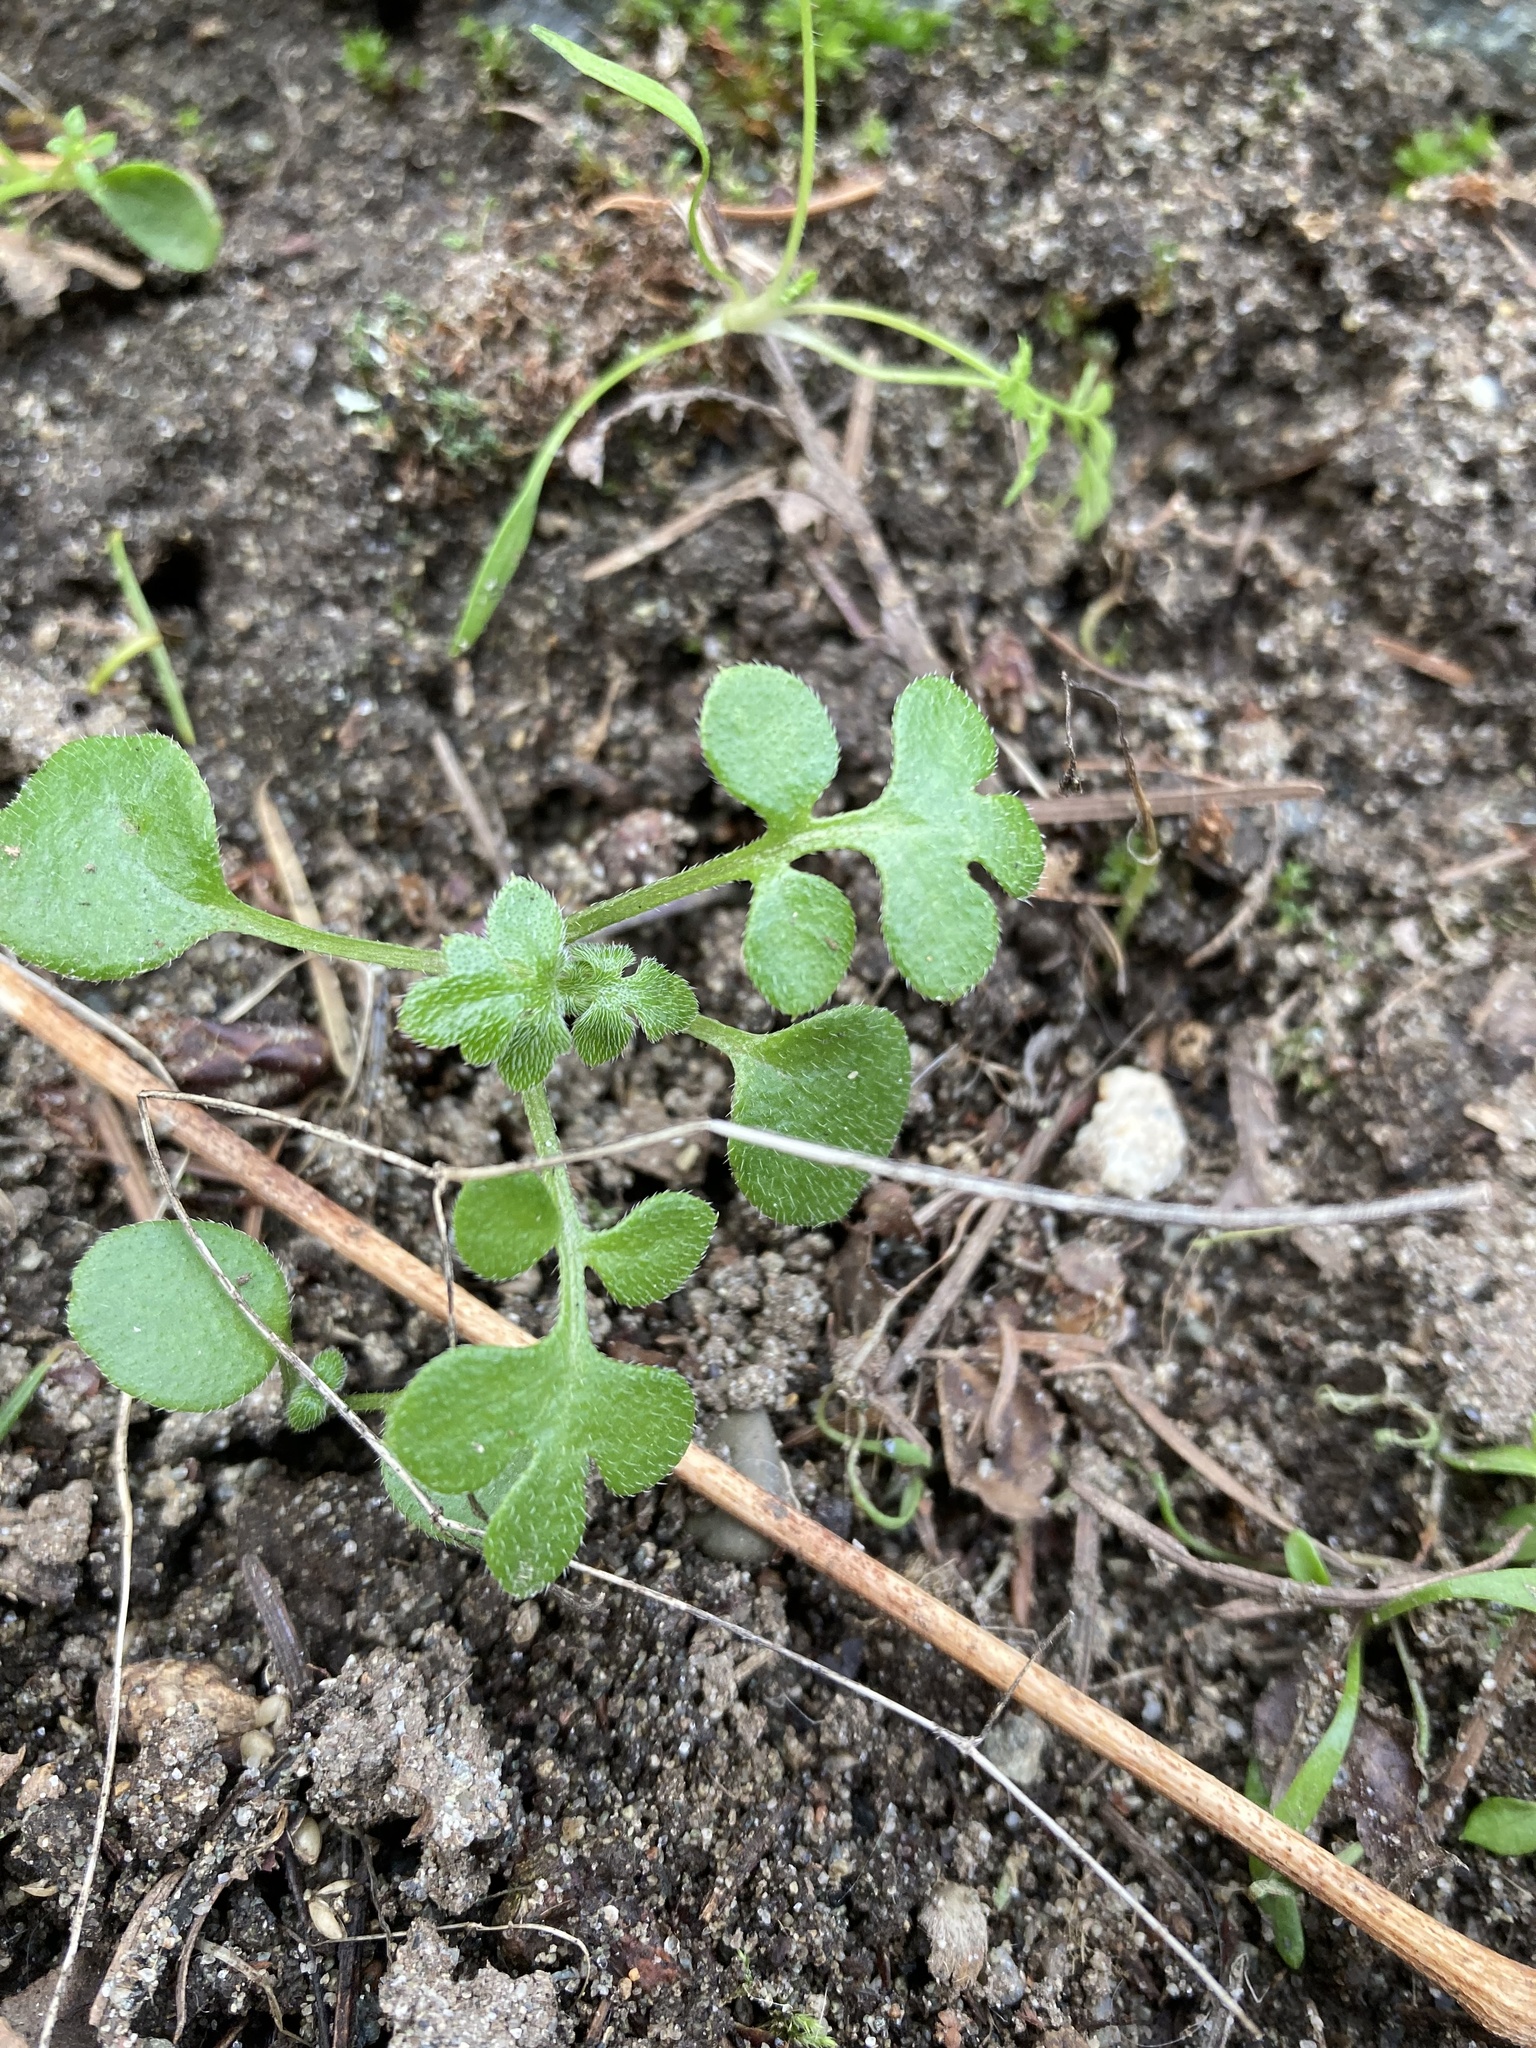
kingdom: Plantae
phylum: Tracheophyta
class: Magnoliopsida
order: Boraginales
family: Hydrophyllaceae
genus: Nemophila
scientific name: Nemophila parviflora
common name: Small-flowered baby-blue-eyes
